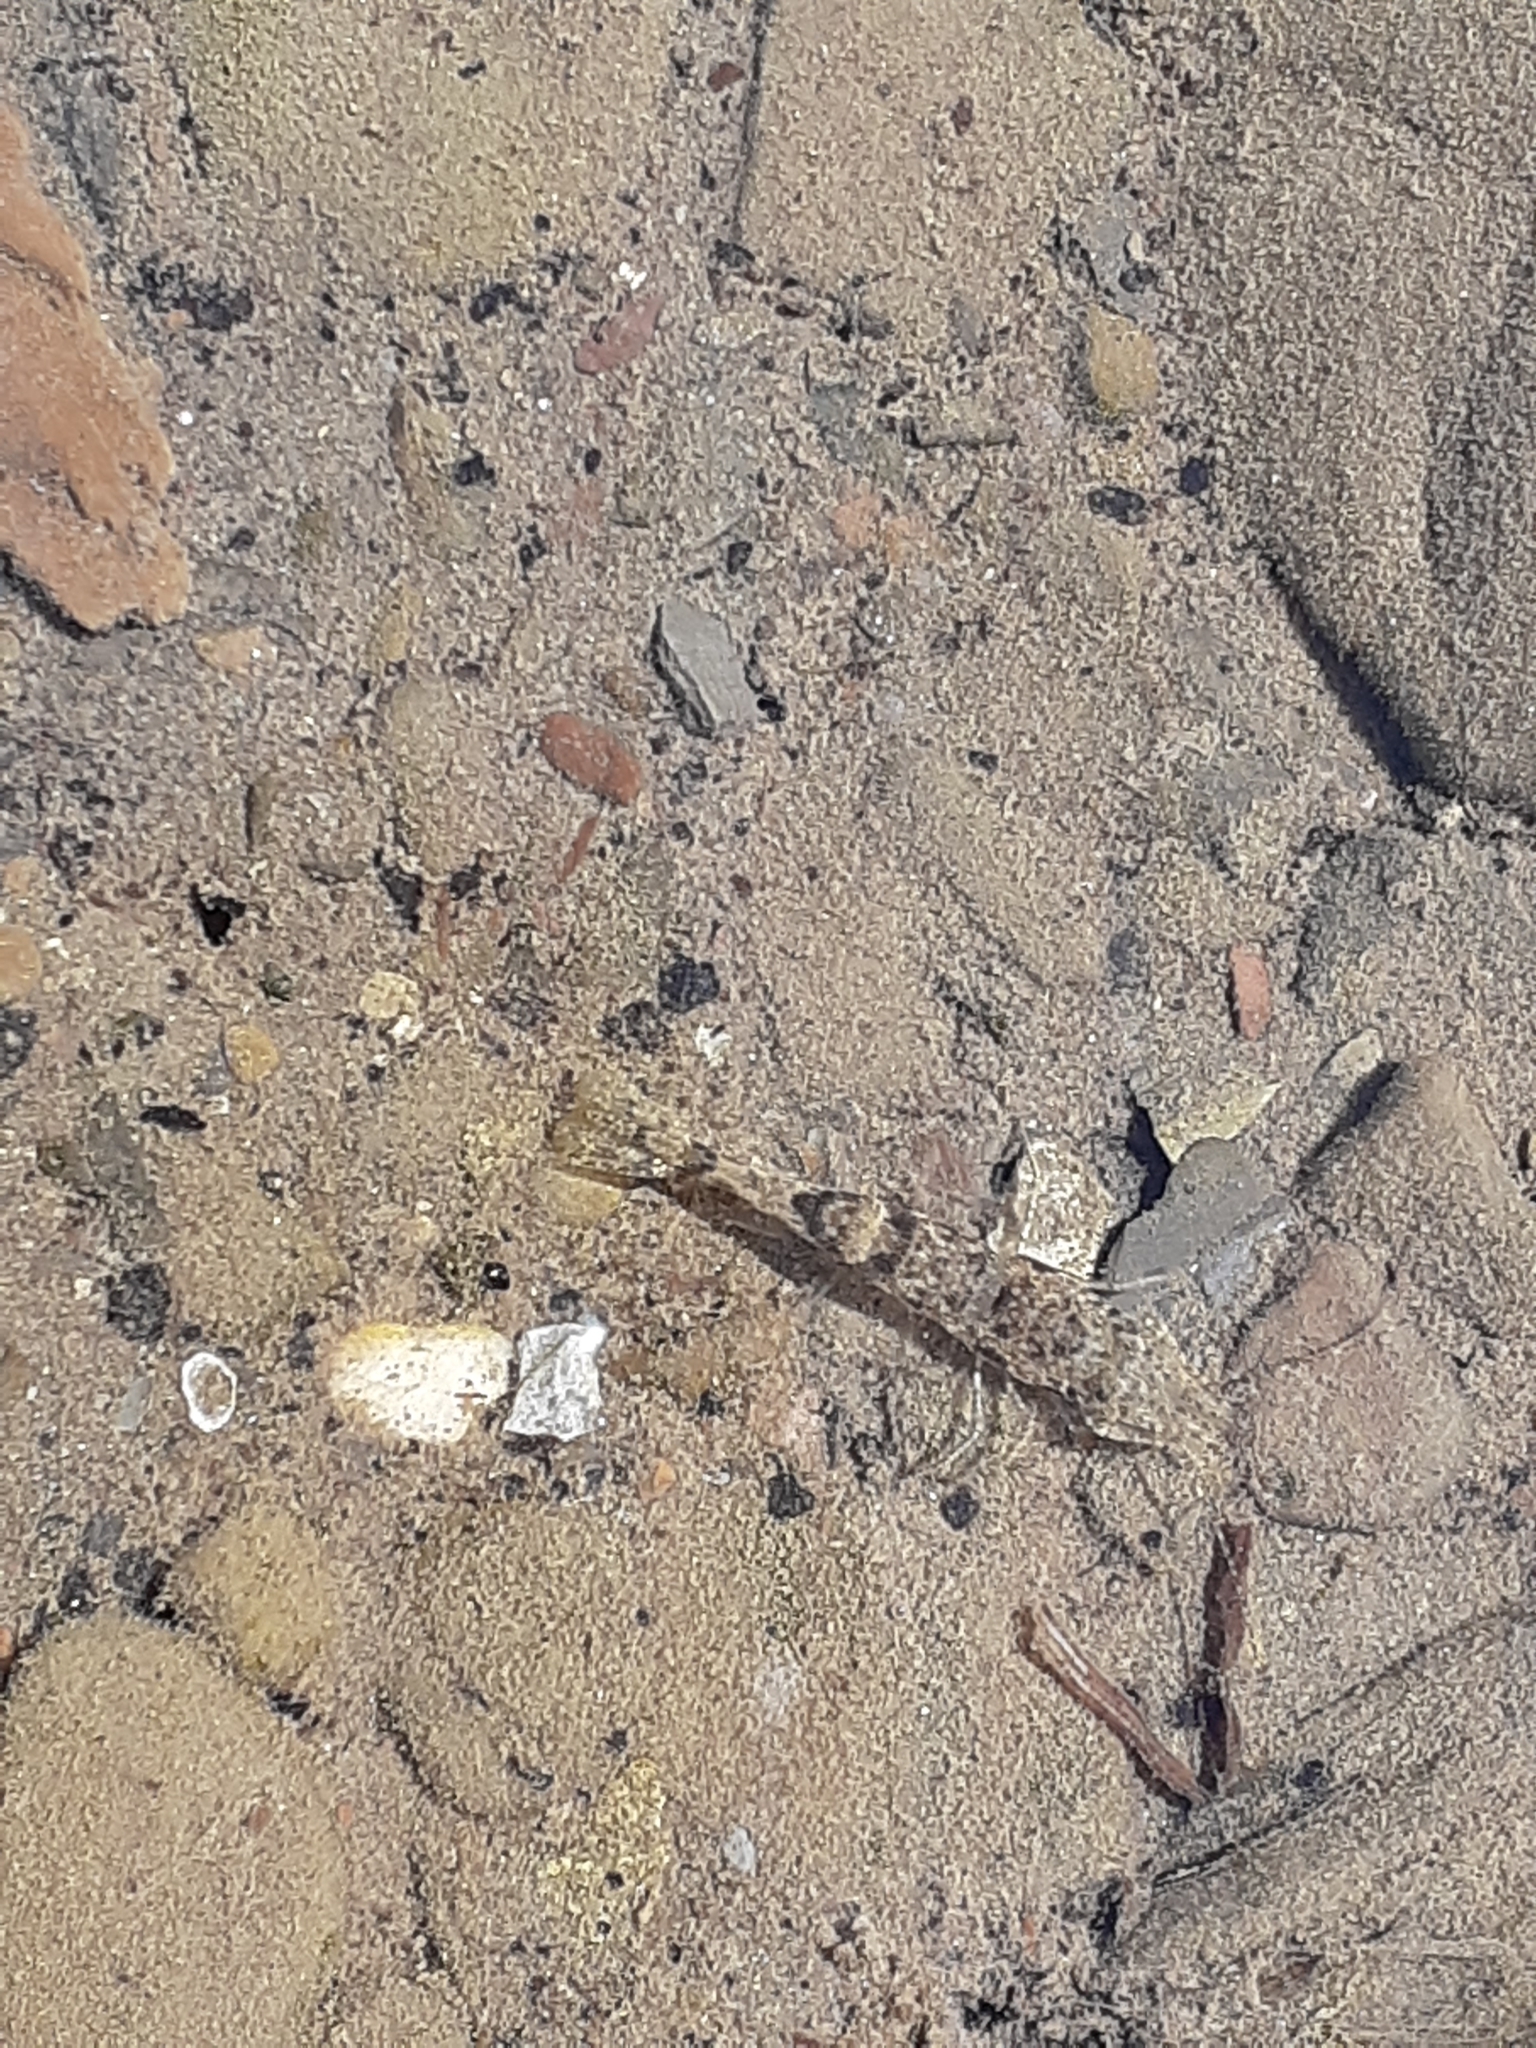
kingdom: Animalia
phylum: Arthropoda
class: Malacostraca
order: Decapoda
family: Crangonidae
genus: Crangon
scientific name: Crangon septemspinosa
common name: Bail shrimp
